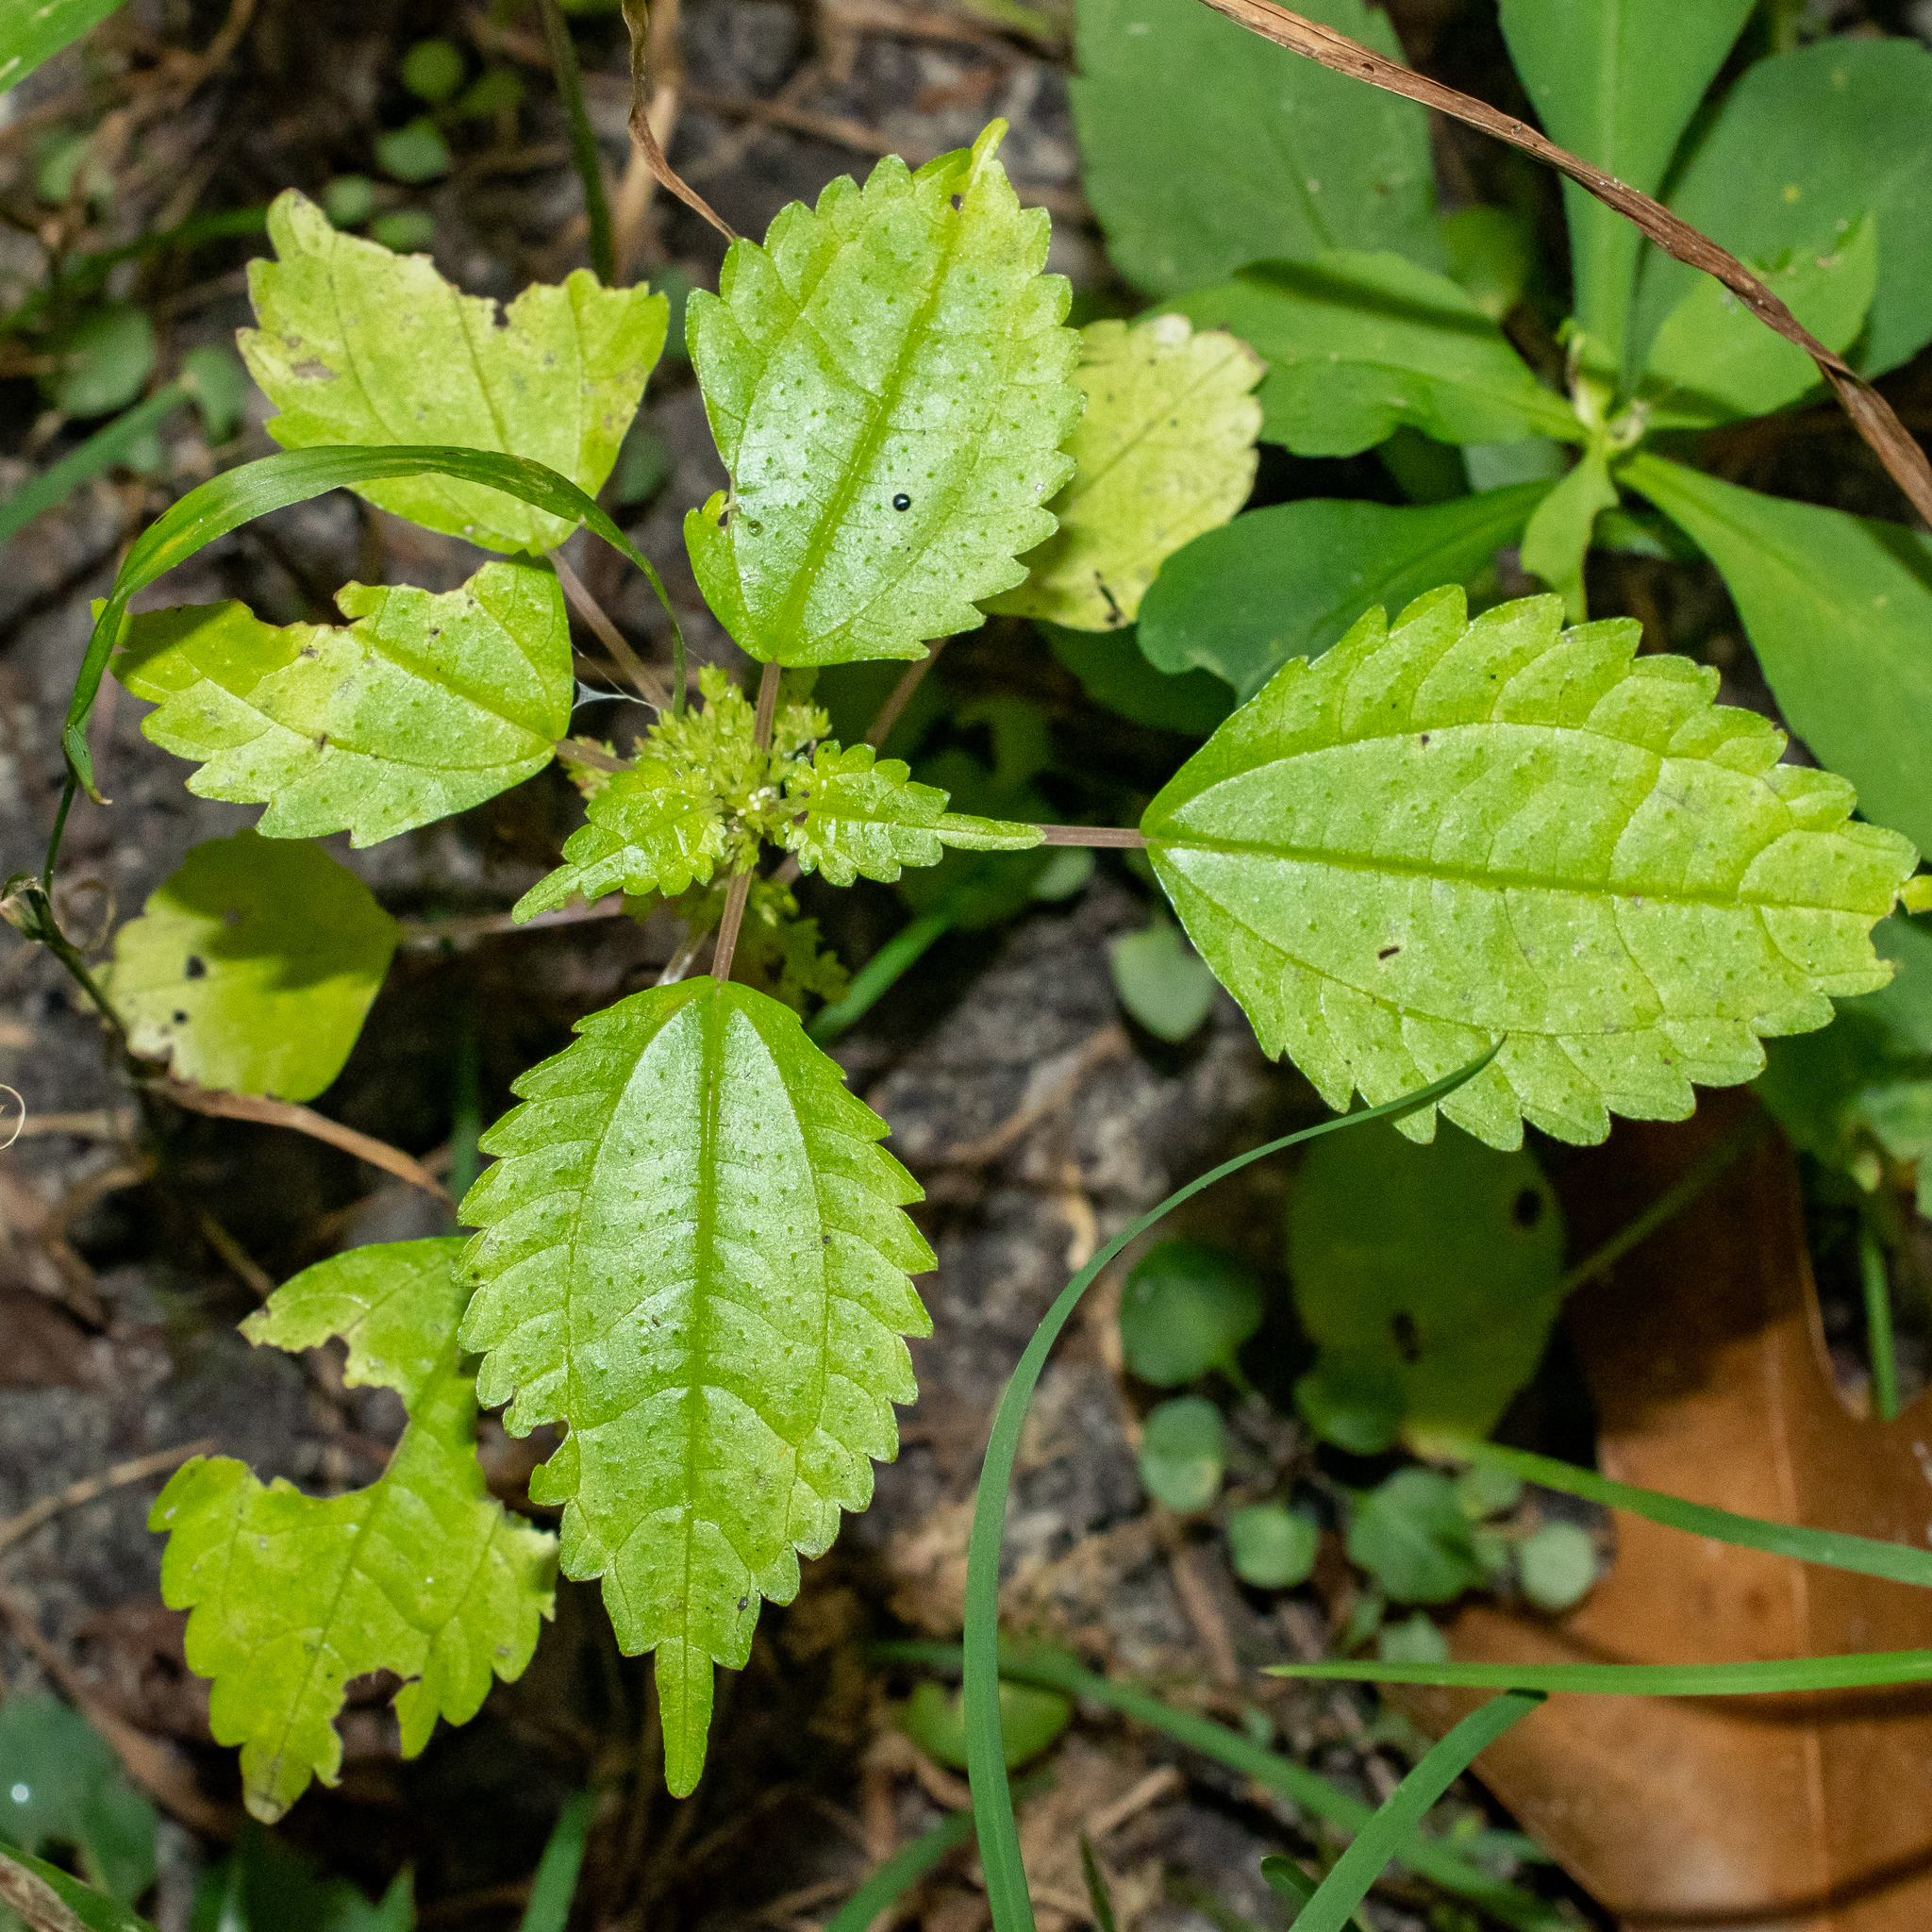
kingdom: Plantae
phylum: Tracheophyta
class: Magnoliopsida
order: Rosales
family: Urticaceae
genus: Pilea
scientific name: Pilea pumila
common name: Clearweed
